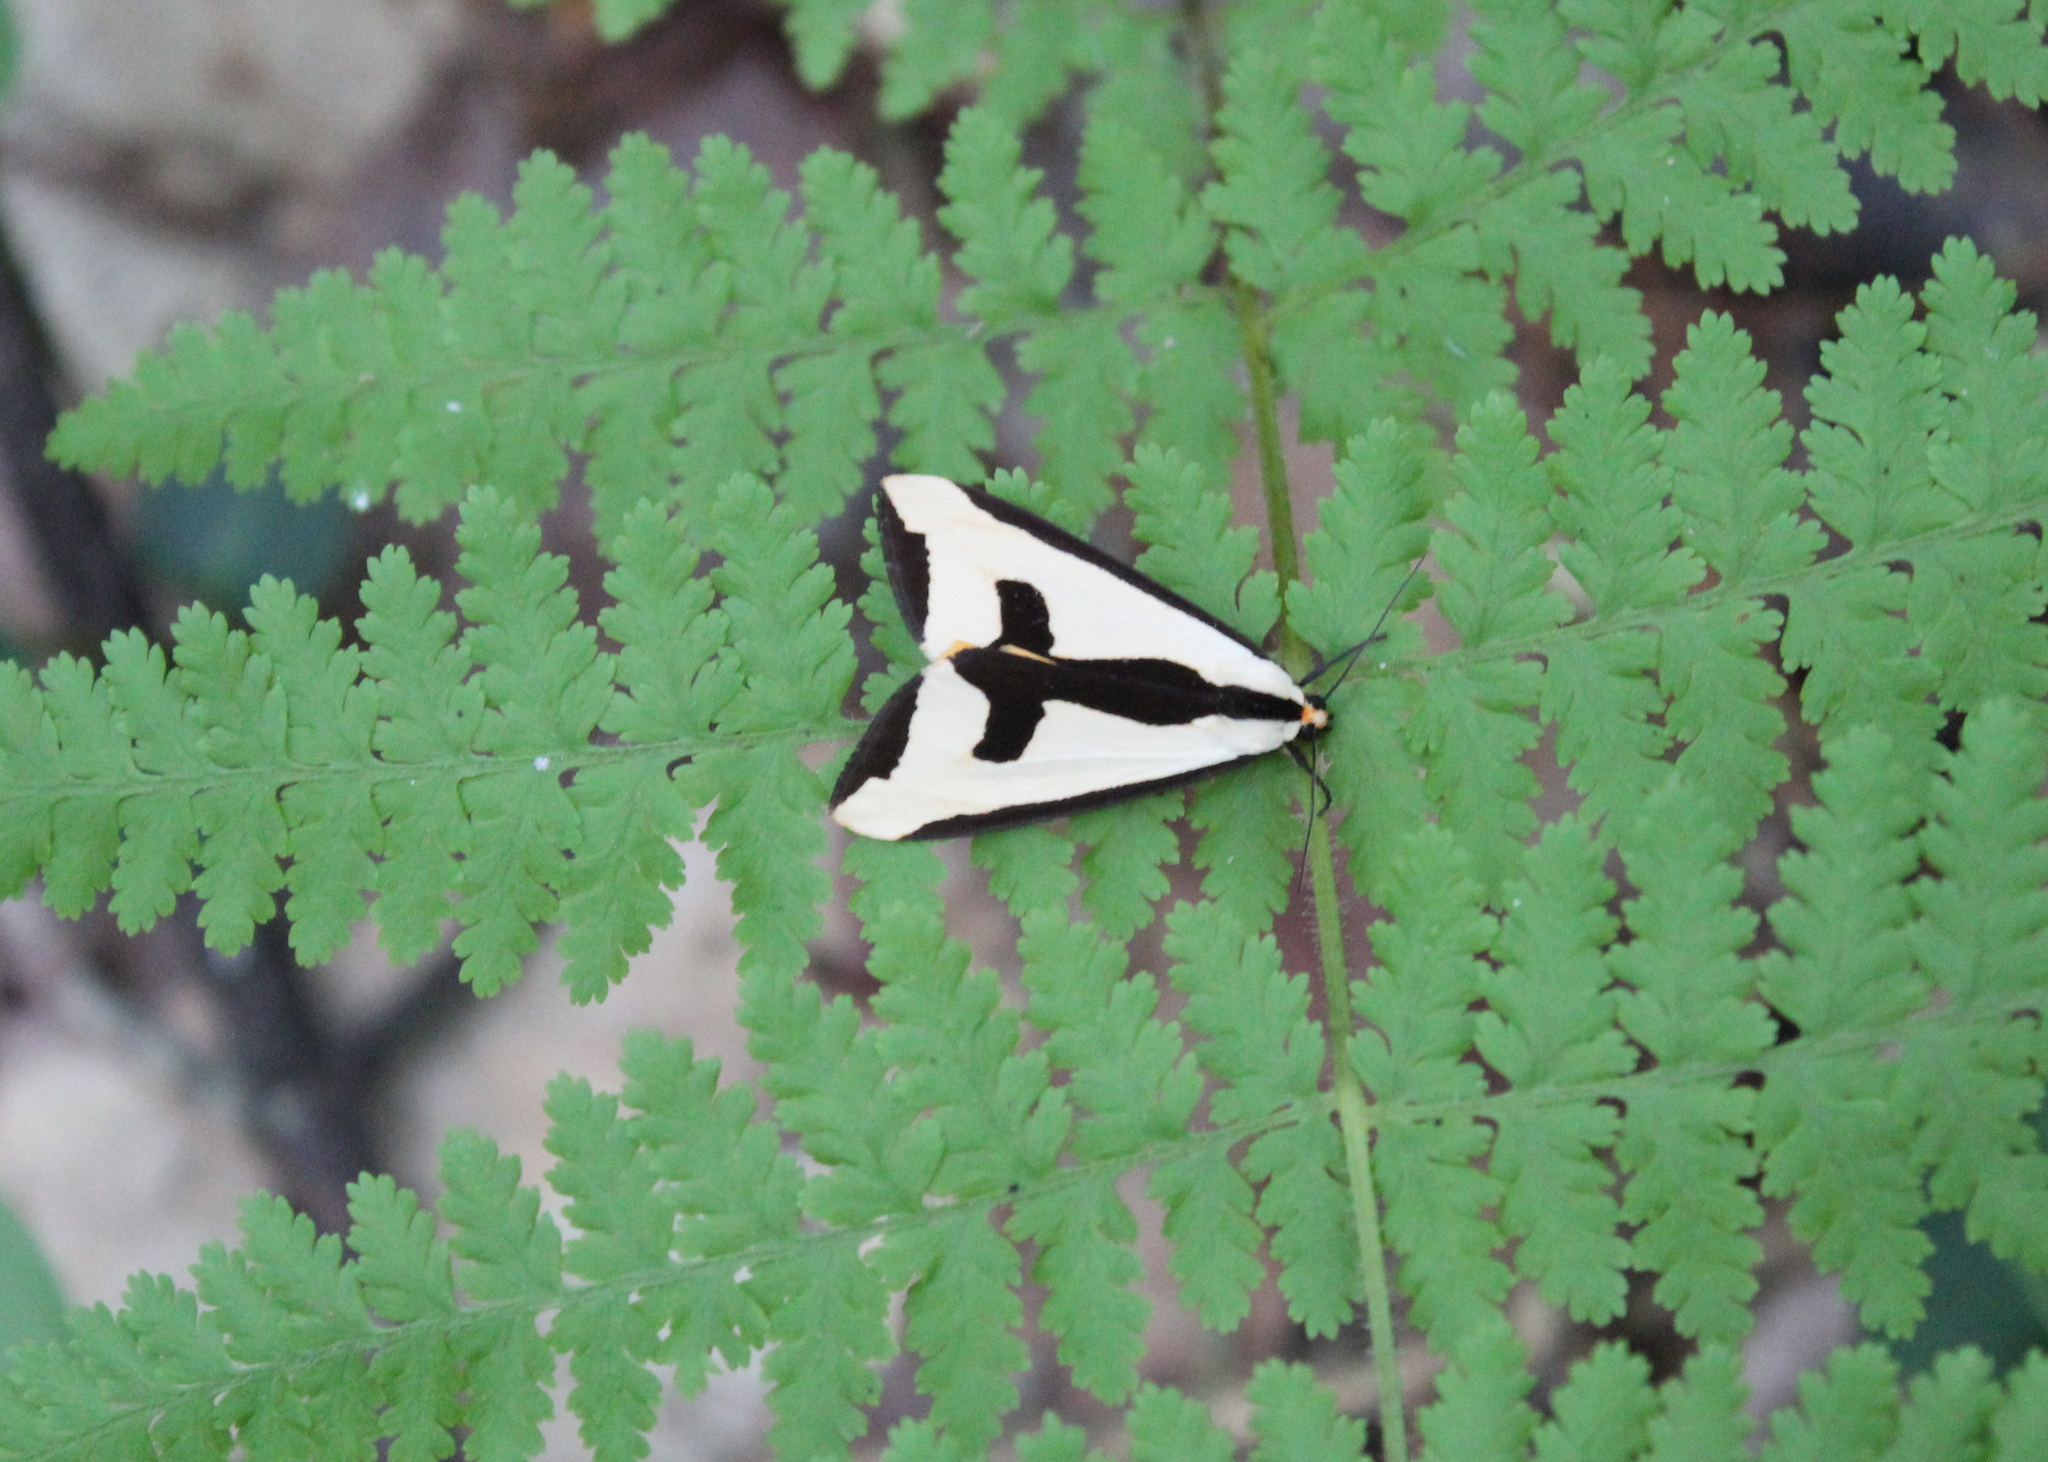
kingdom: Animalia
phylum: Arthropoda
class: Insecta
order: Lepidoptera
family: Erebidae
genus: Haploa
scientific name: Haploa clymene
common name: Clymene moth
